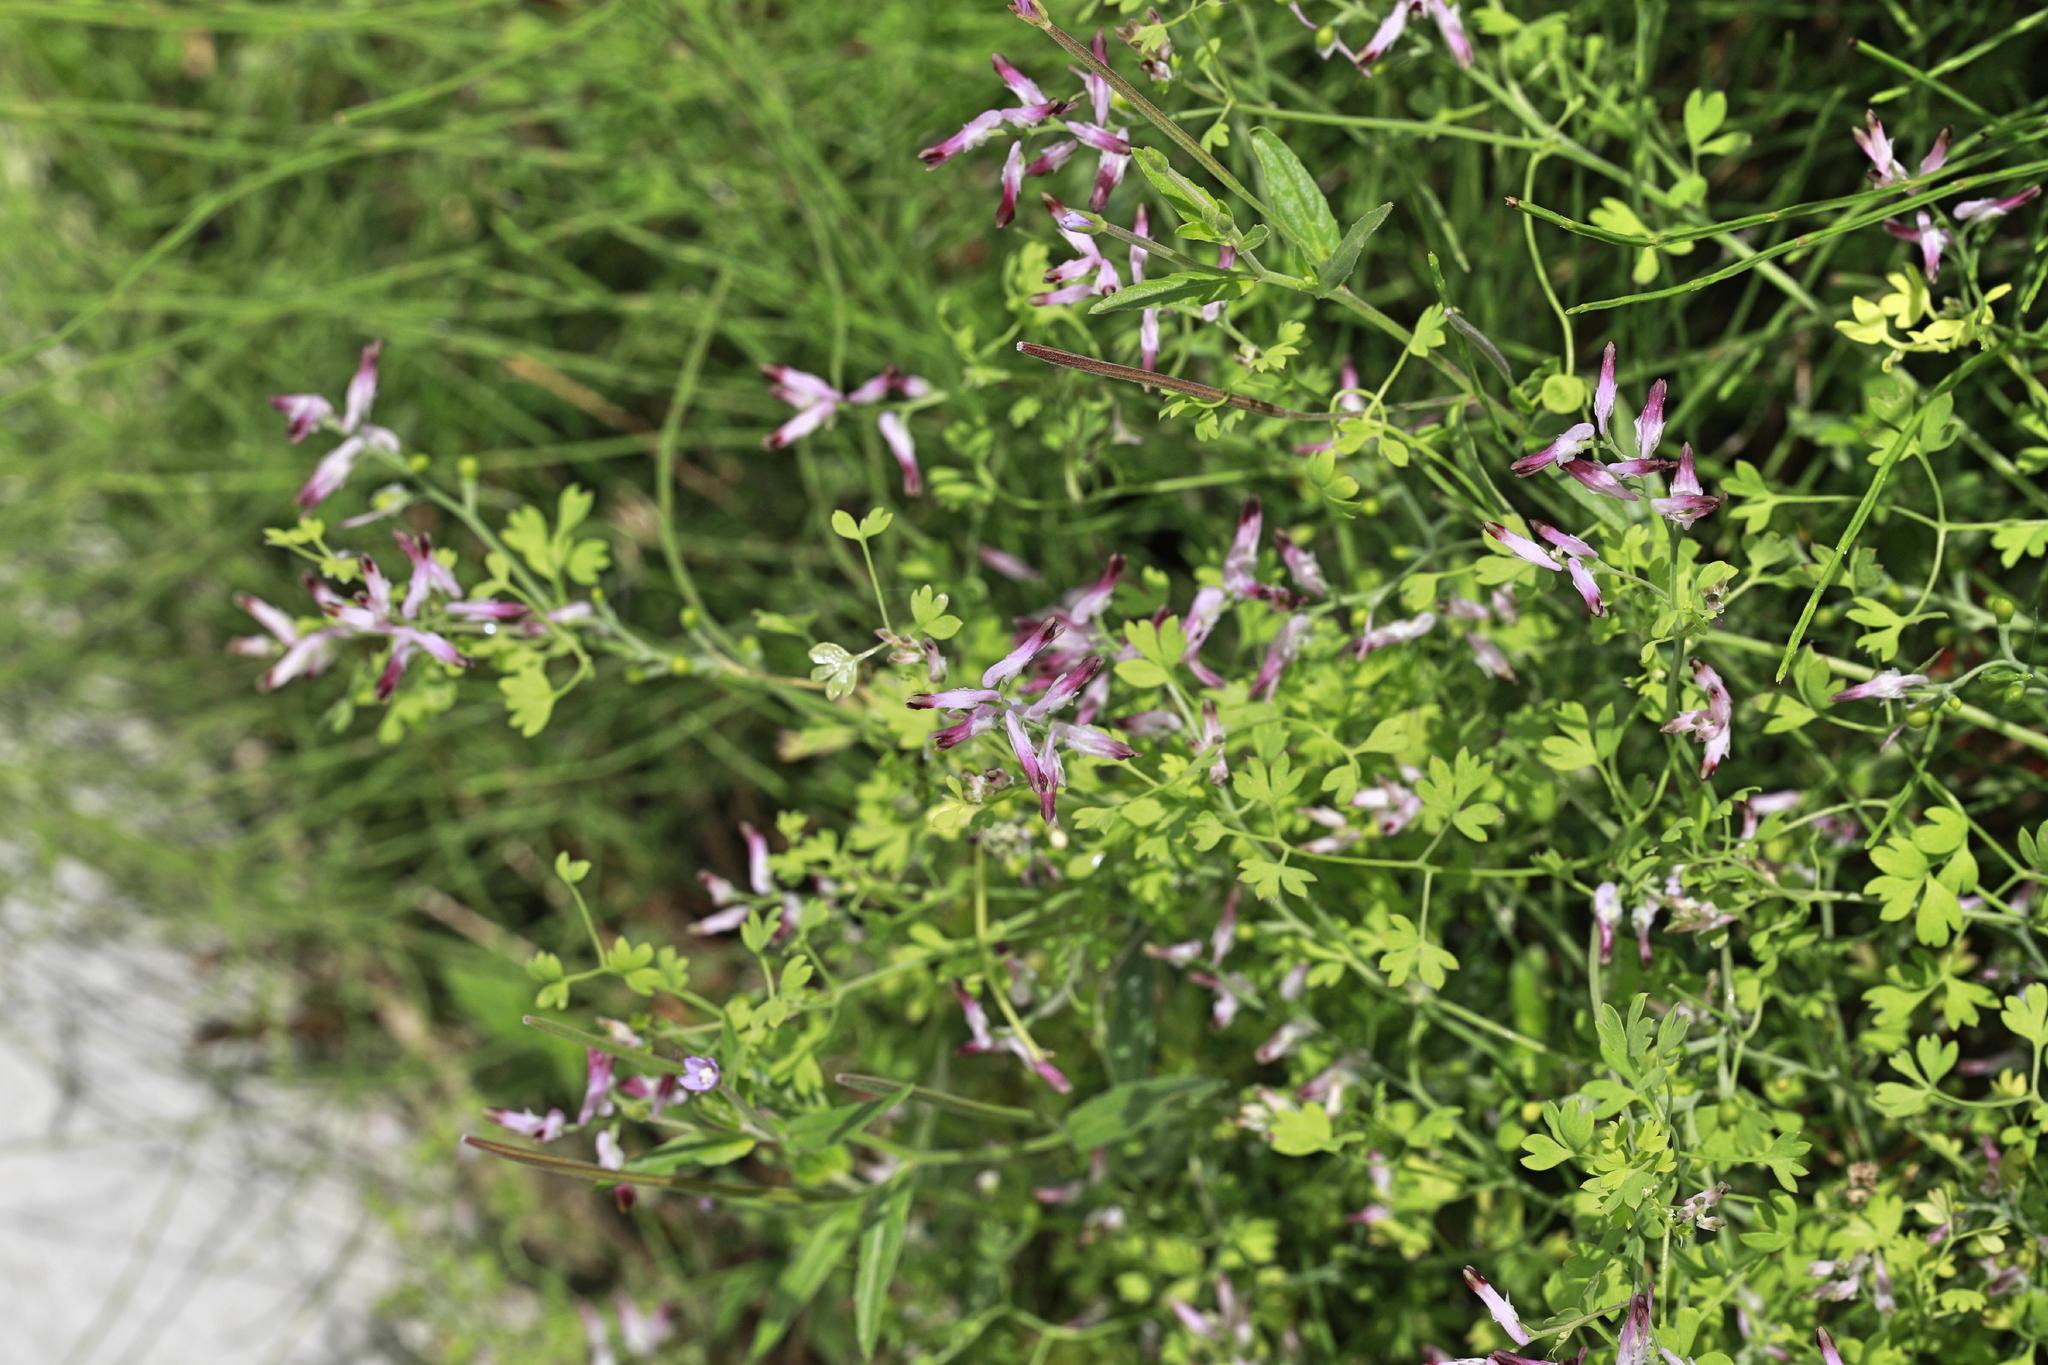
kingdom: Plantae
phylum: Tracheophyta
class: Magnoliopsida
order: Ranunculales
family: Papaveraceae
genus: Fumaria
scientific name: Fumaria bastardii
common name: Tall ramping-fumitory
